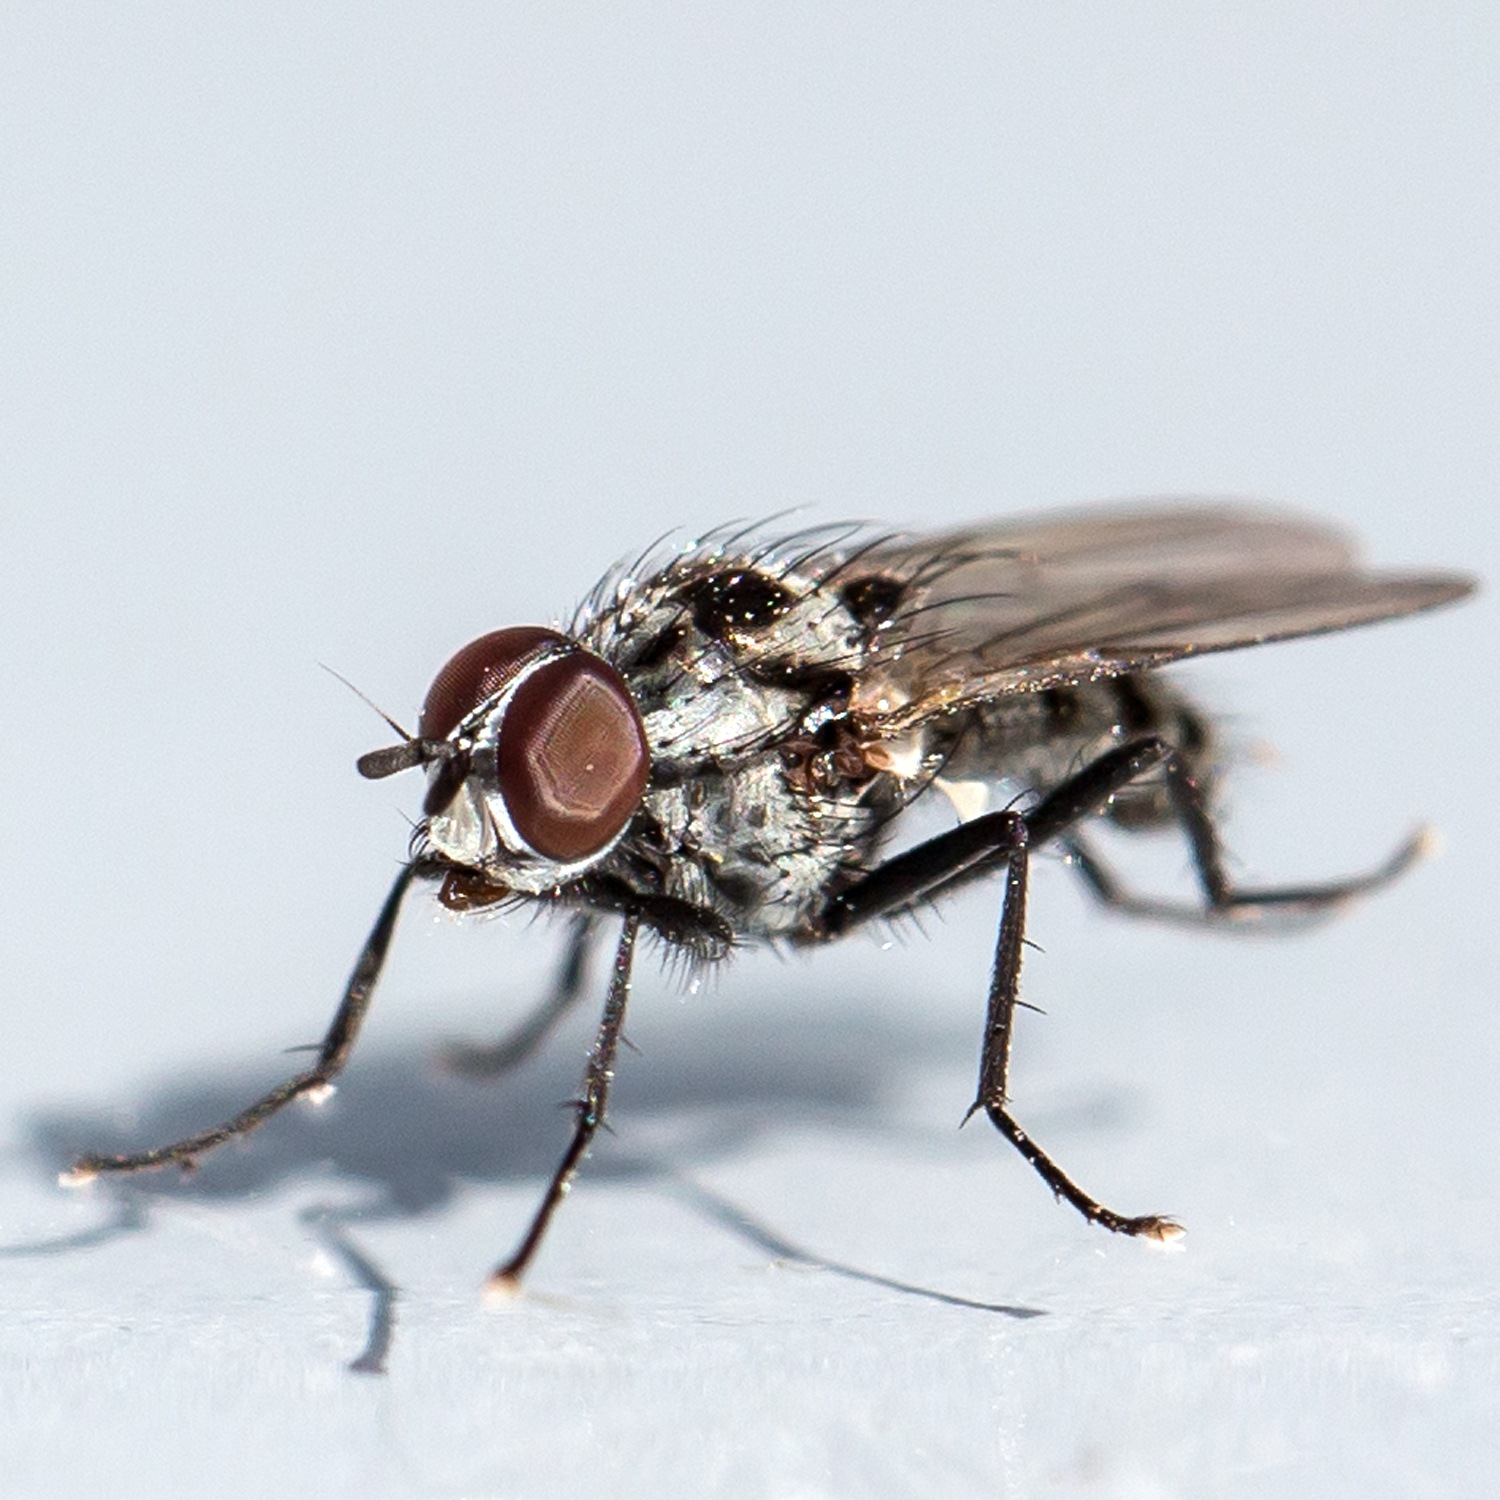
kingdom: Animalia
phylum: Arthropoda
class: Insecta
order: Diptera
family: Anthomyiidae
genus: Anthomyia
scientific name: Anthomyia oculifera
